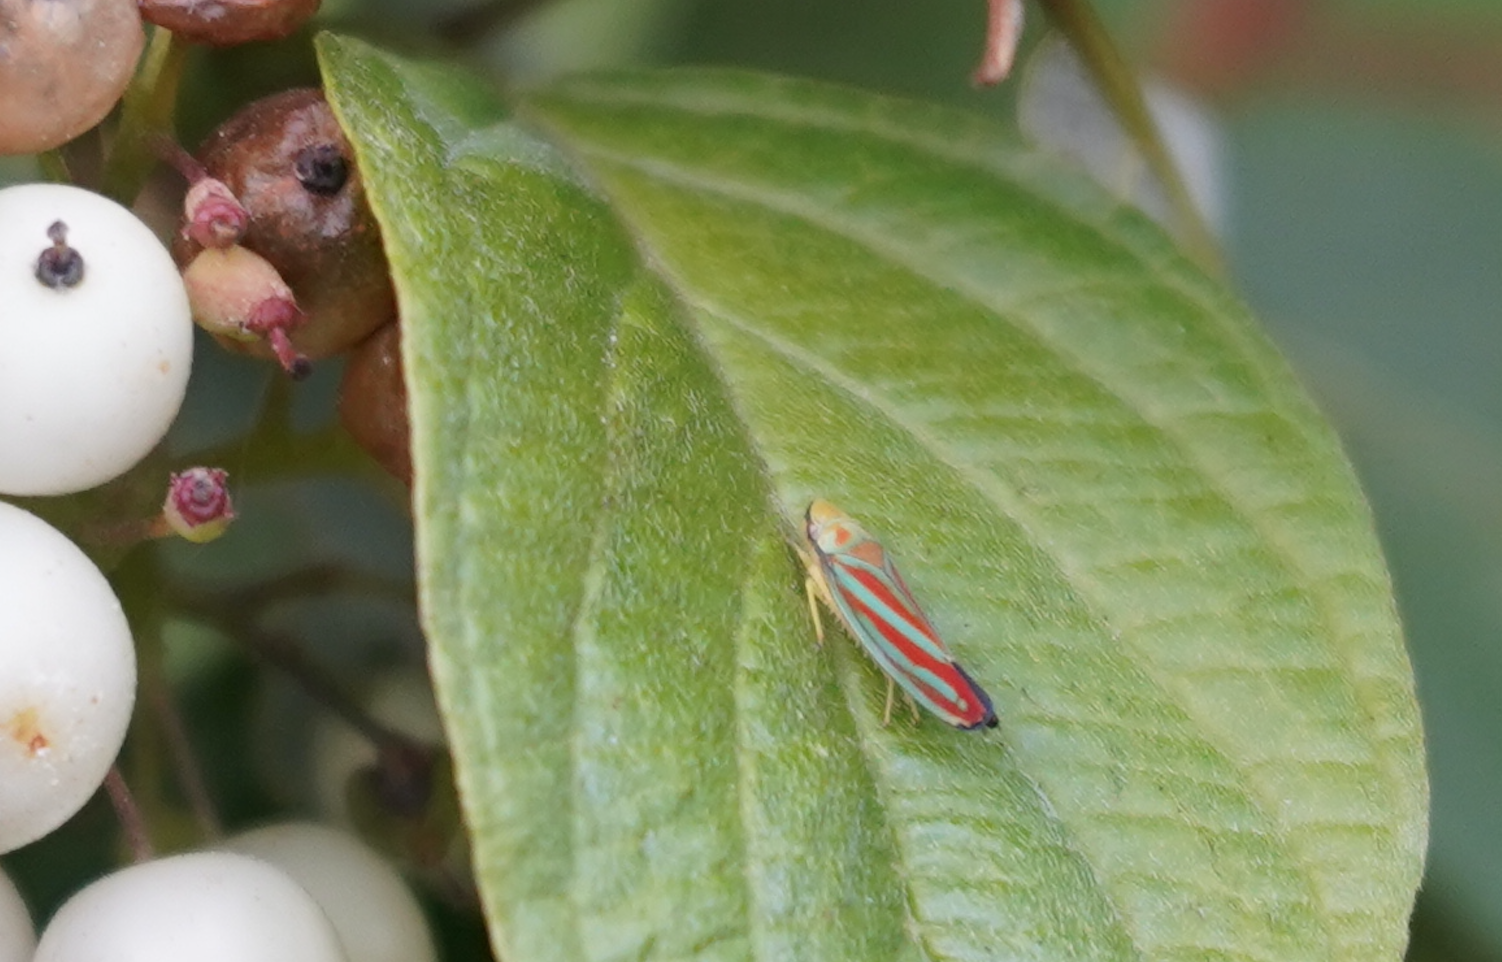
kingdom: Animalia
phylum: Arthropoda
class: Insecta
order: Hemiptera
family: Cicadellidae
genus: Graphocephala
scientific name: Graphocephala coccinea
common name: Candy-striped leafhopper
